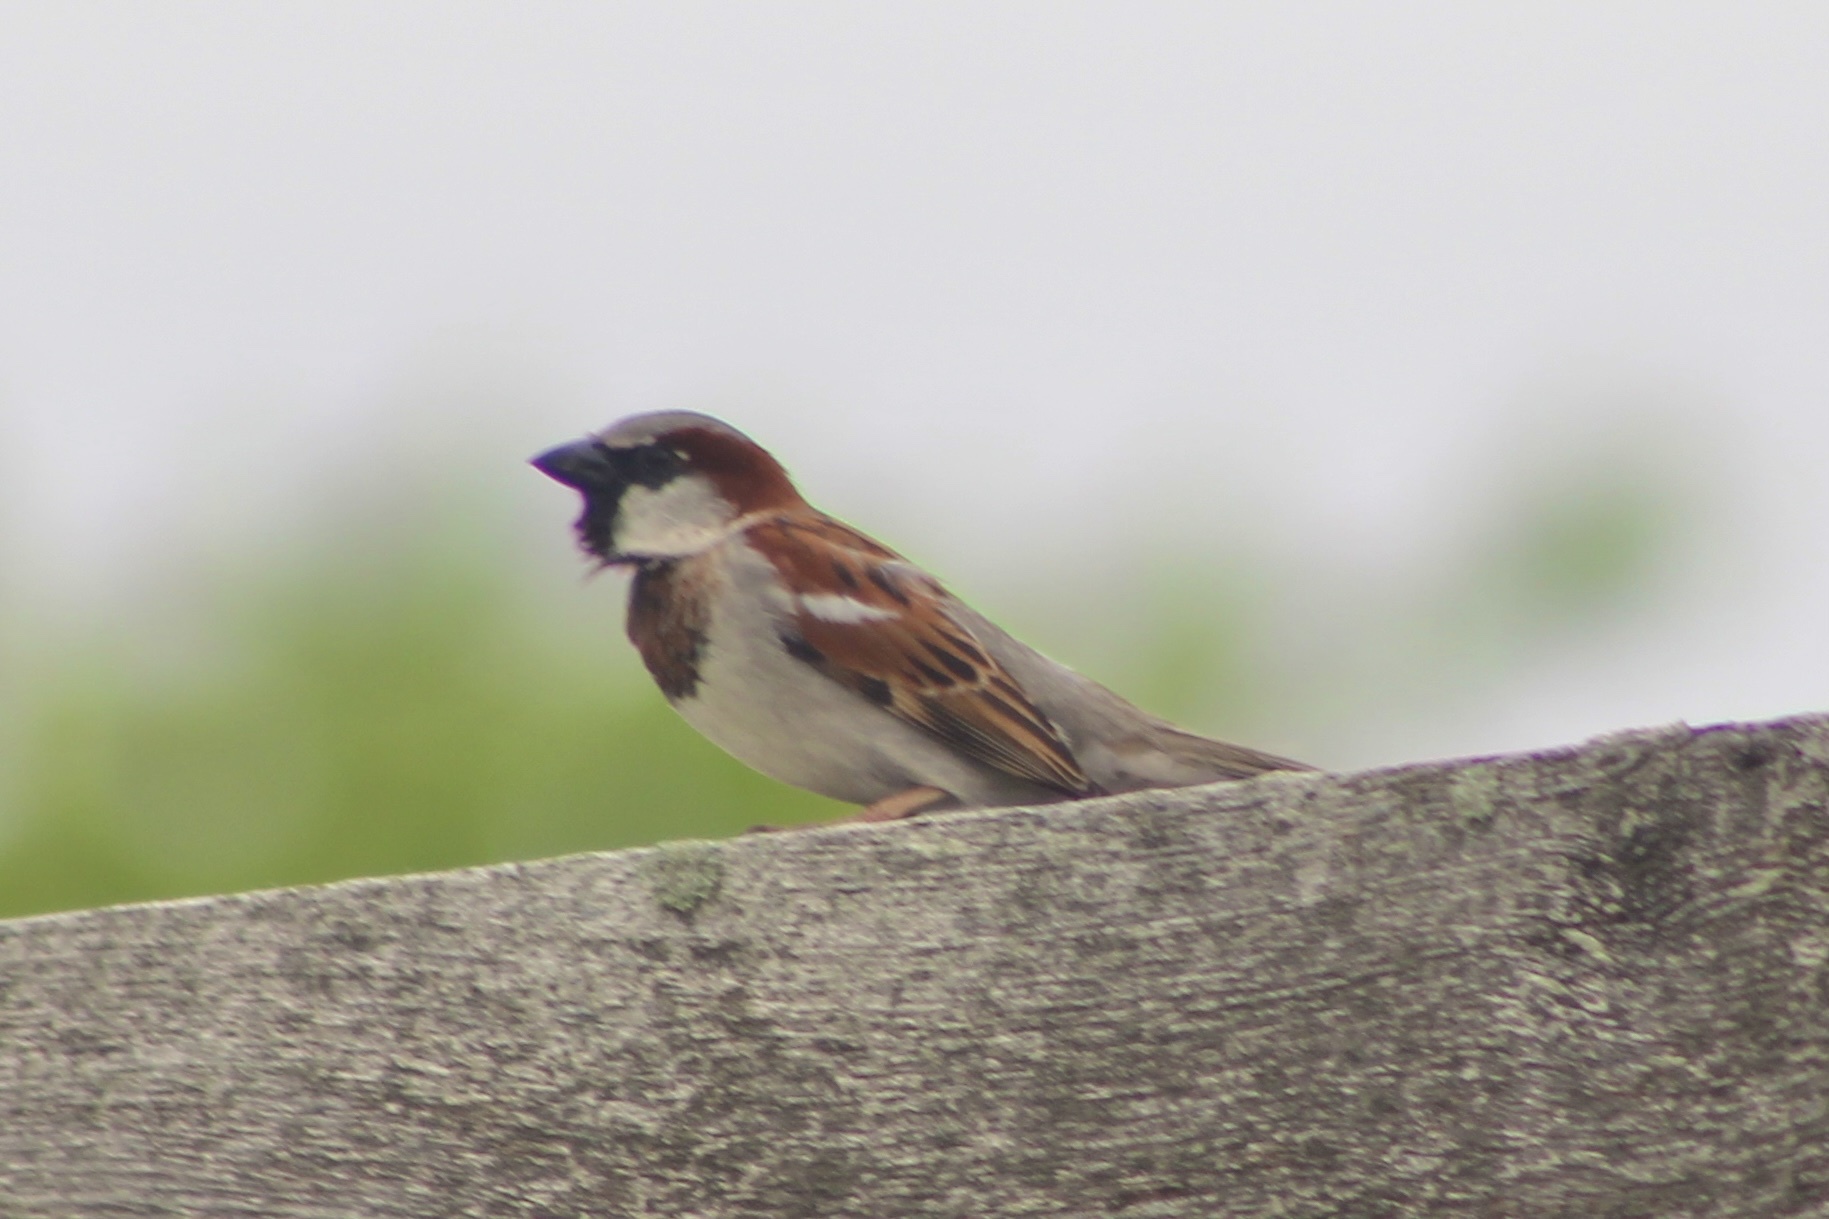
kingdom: Animalia
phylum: Chordata
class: Aves
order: Passeriformes
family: Passeridae
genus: Passer
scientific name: Passer domesticus
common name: House sparrow
